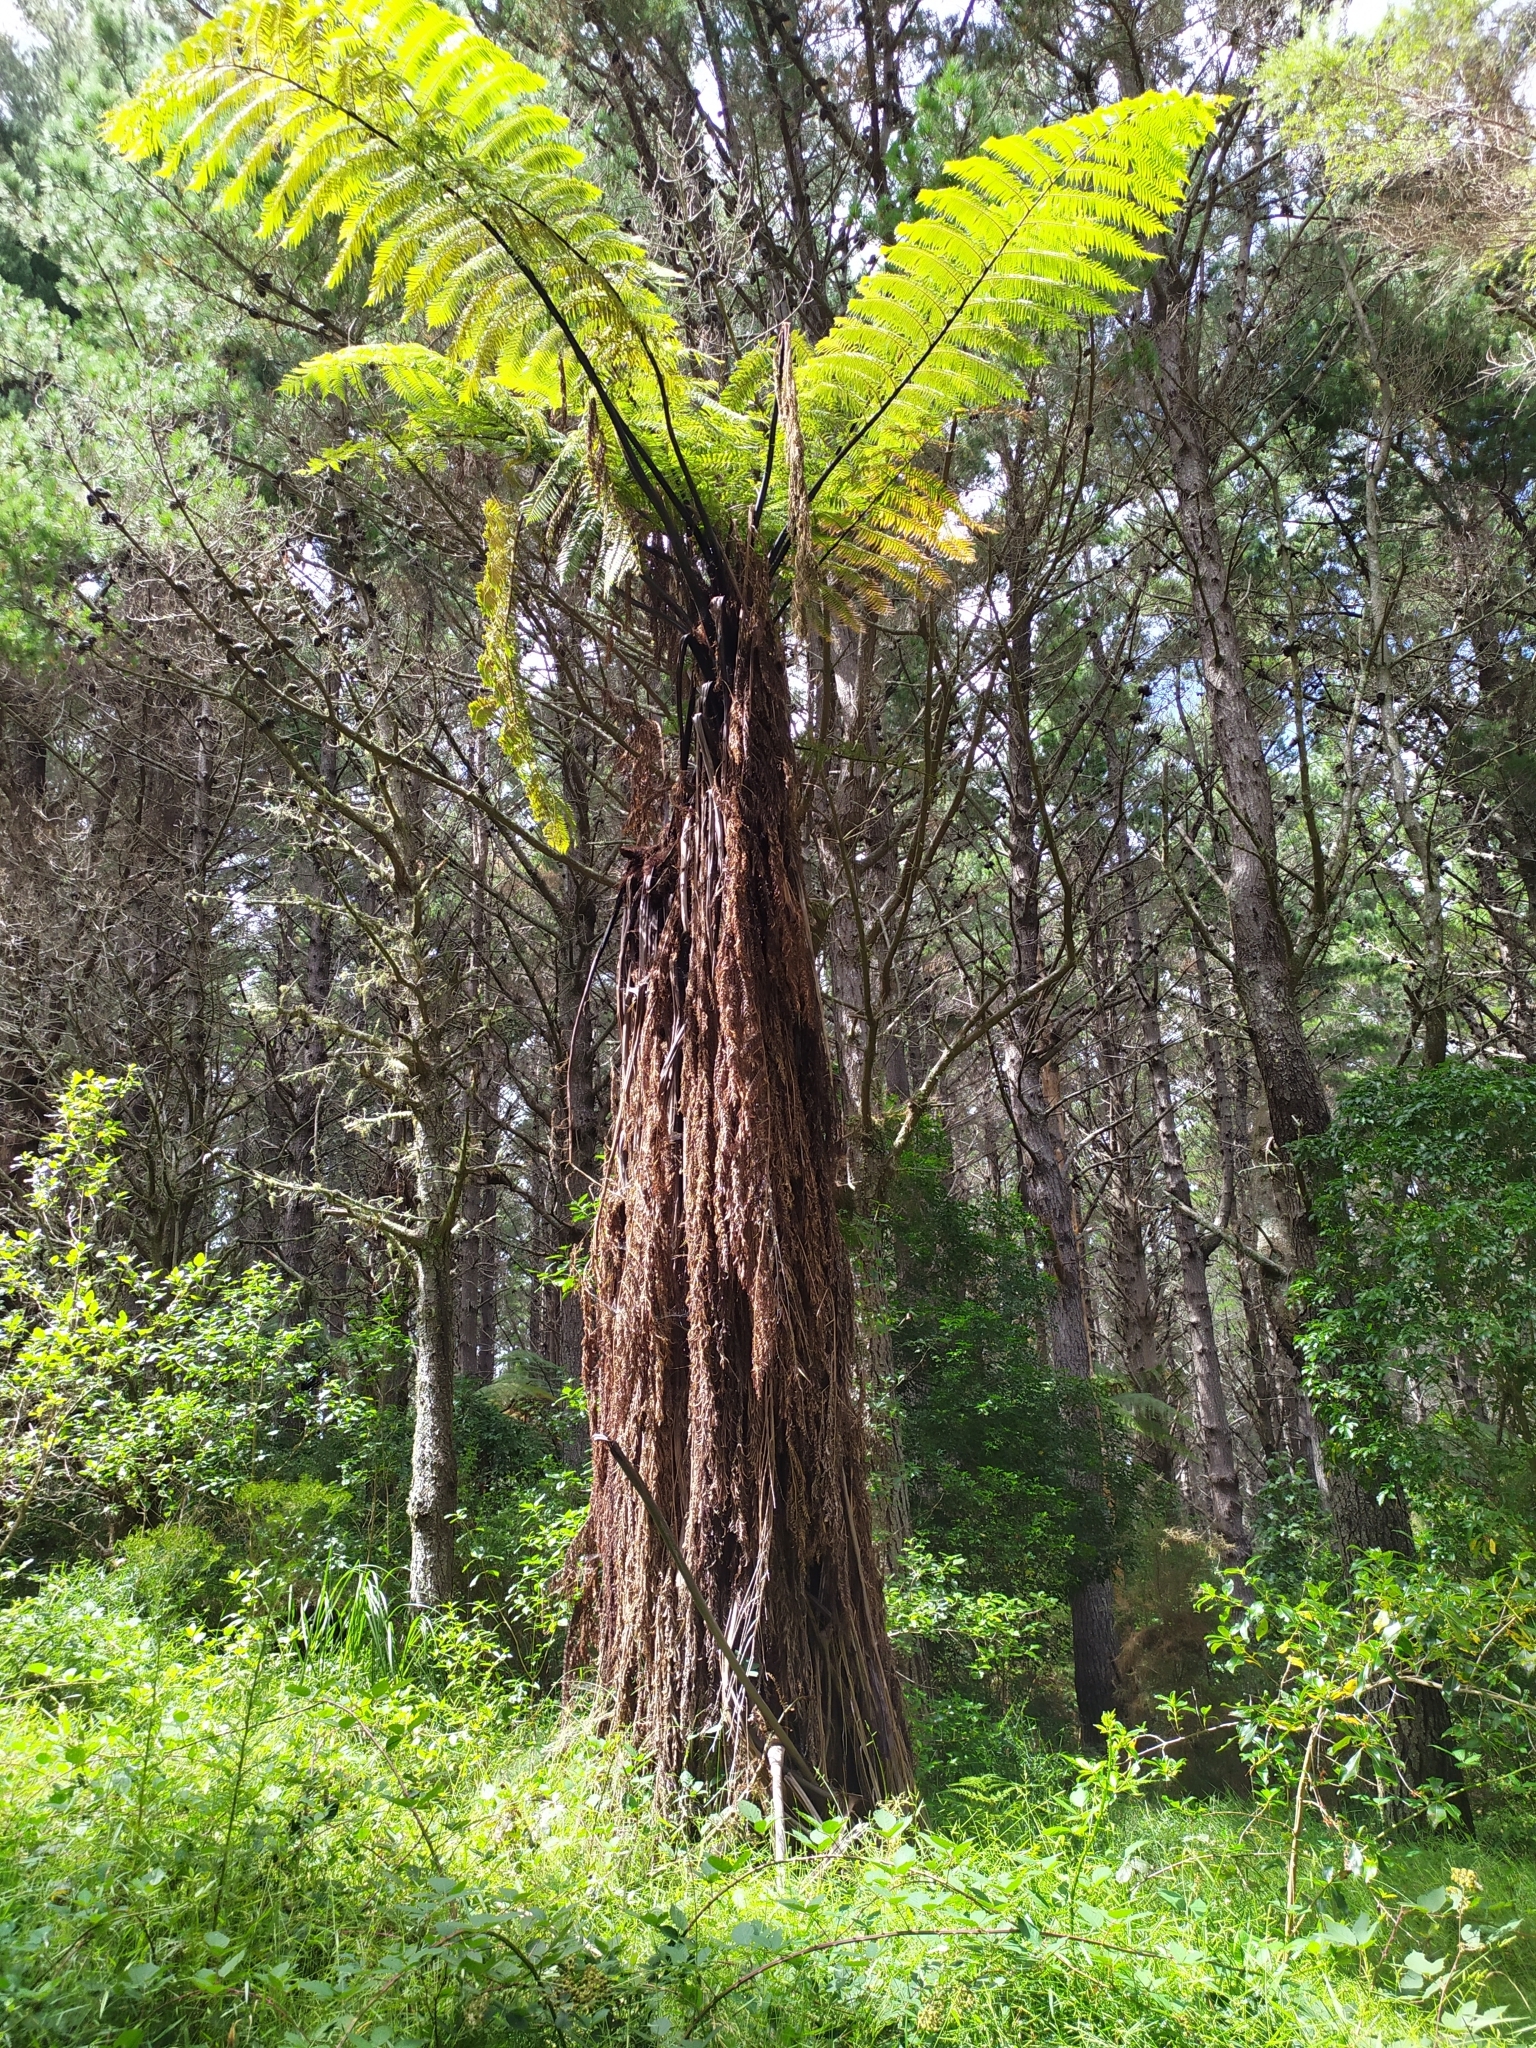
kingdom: Plantae
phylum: Tracheophyta
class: Polypodiopsida
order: Cyatheales
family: Cyatheaceae
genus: Sphaeropteris
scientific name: Sphaeropteris medullaris
